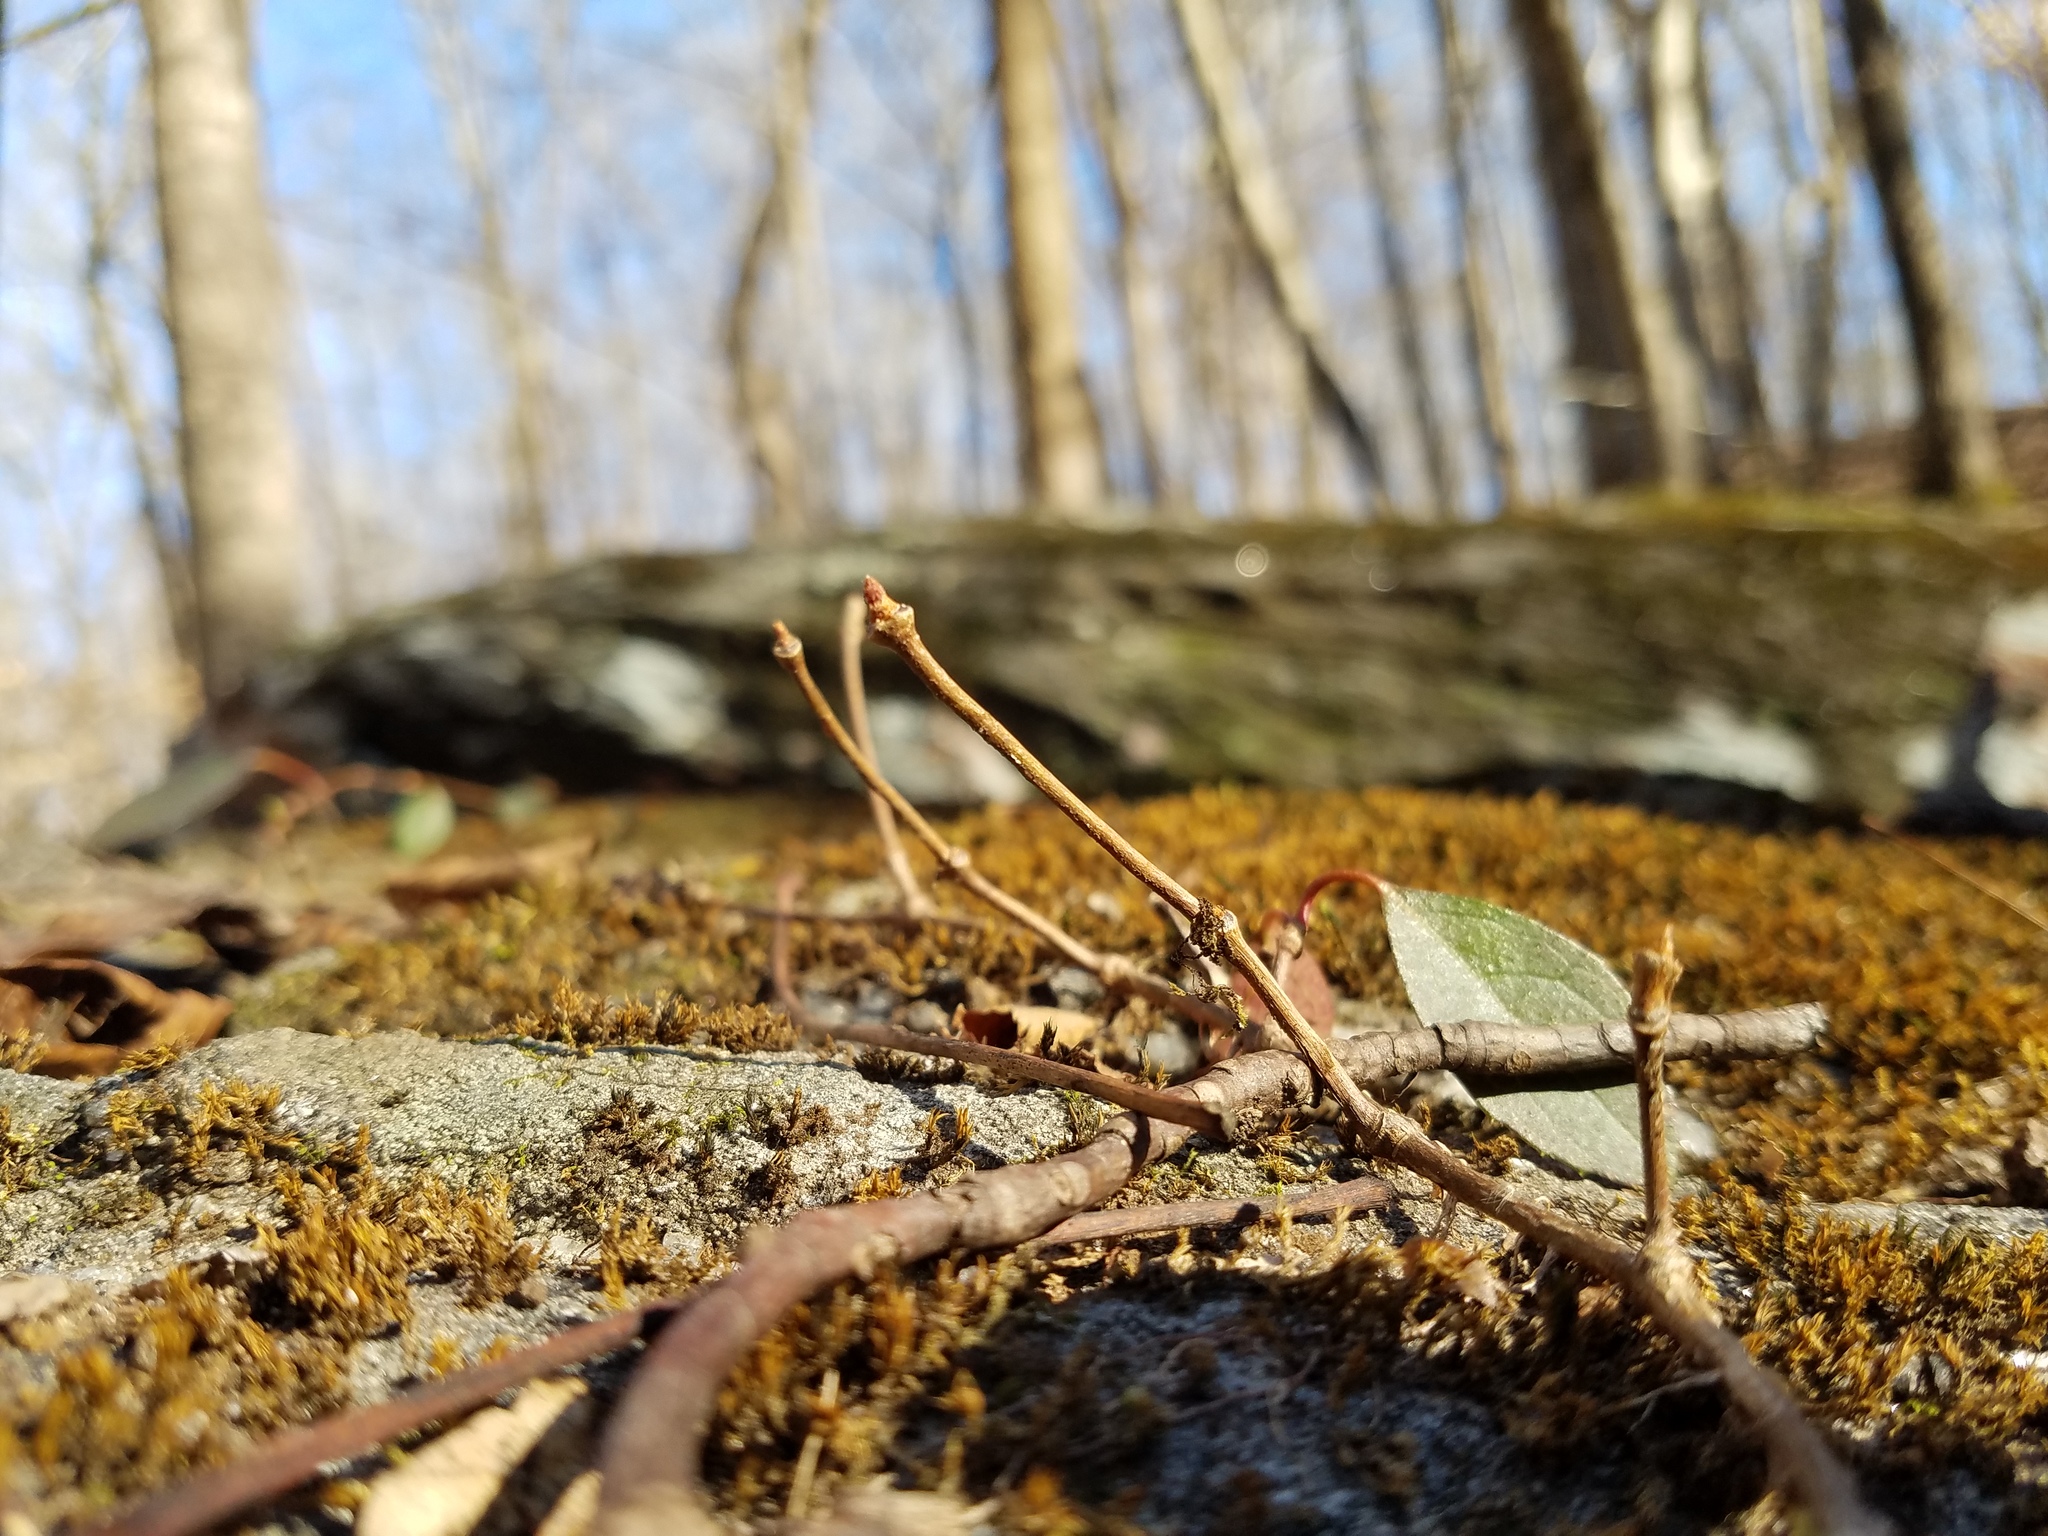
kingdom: Plantae
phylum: Tracheophyta
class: Magnoliopsida
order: Cornales
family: Hydrangeaceae
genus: Hydrangea
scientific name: Hydrangea barbara
